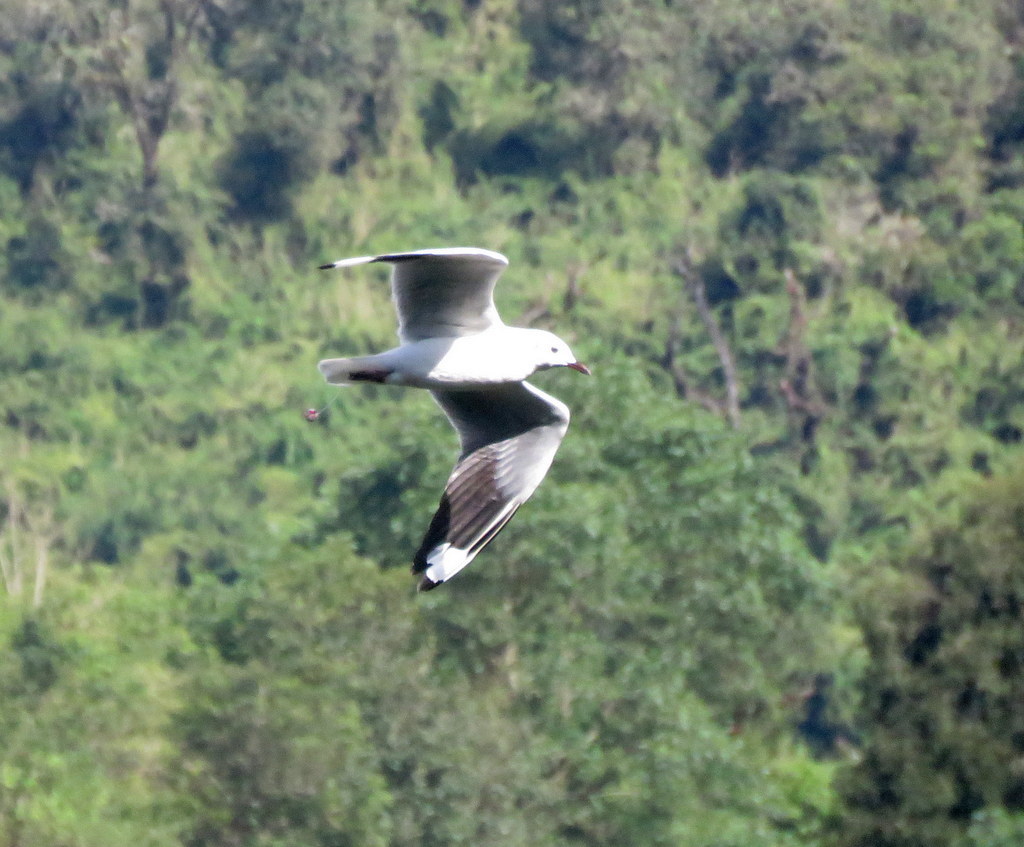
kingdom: Animalia
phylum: Chordata
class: Aves
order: Charadriiformes
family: Laridae
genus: Chroicocephalus
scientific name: Chroicocephalus serranus
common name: Andean gull
